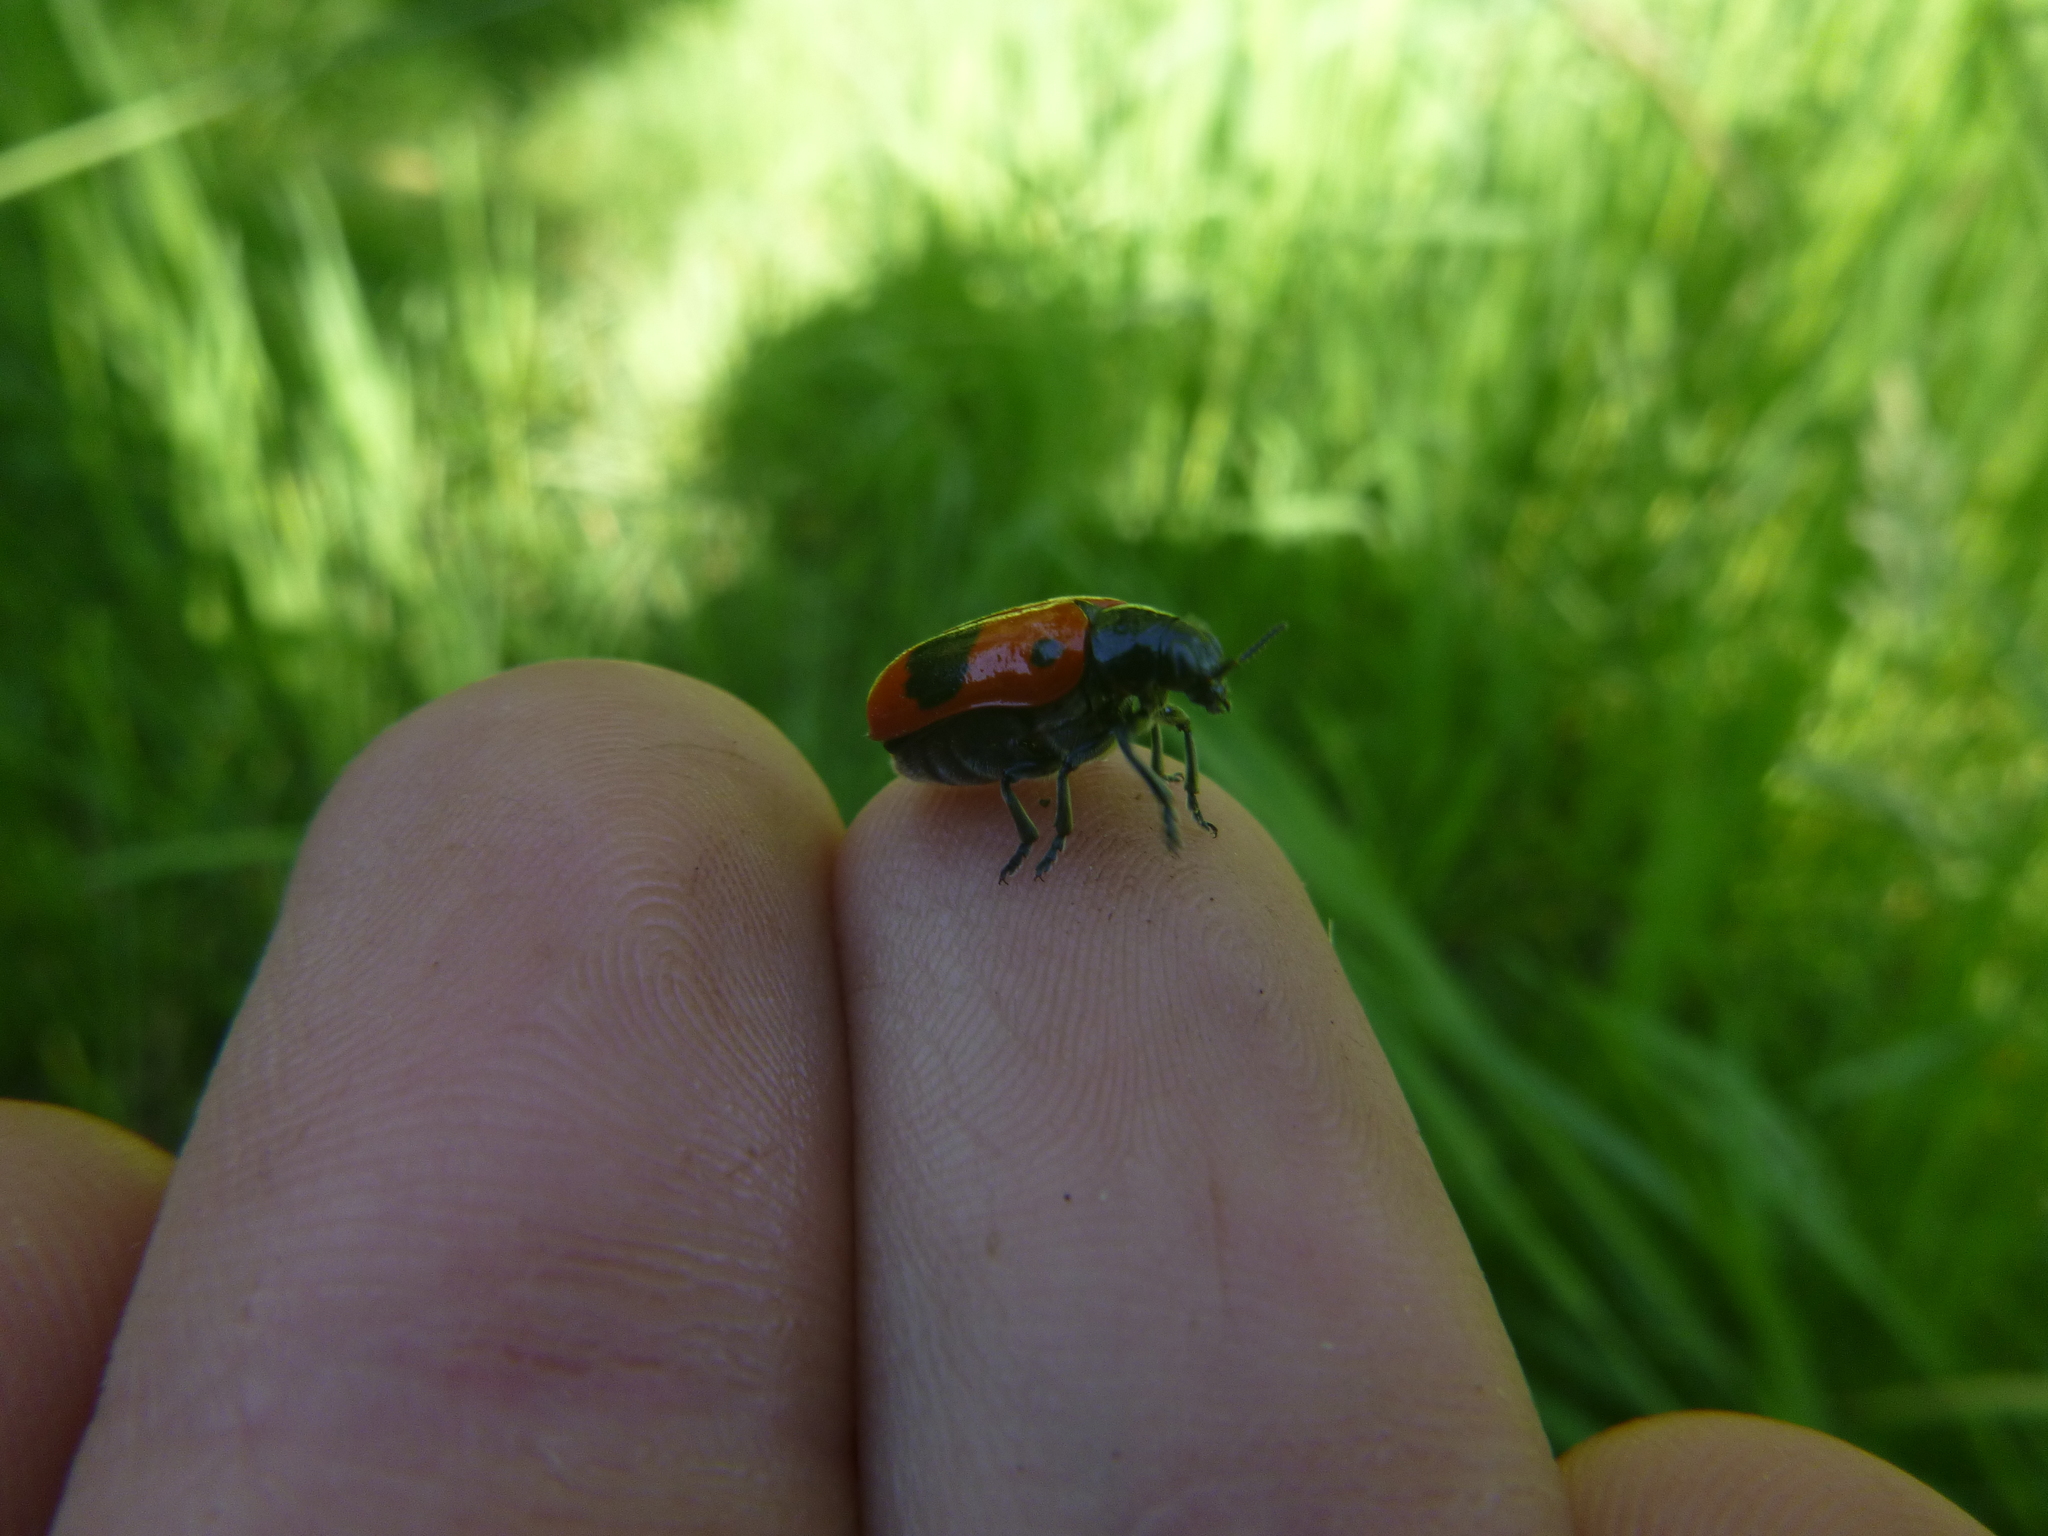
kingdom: Animalia
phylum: Arthropoda
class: Insecta
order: Coleoptera
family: Chrysomelidae
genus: Clytra
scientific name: Clytra laeviuscula
